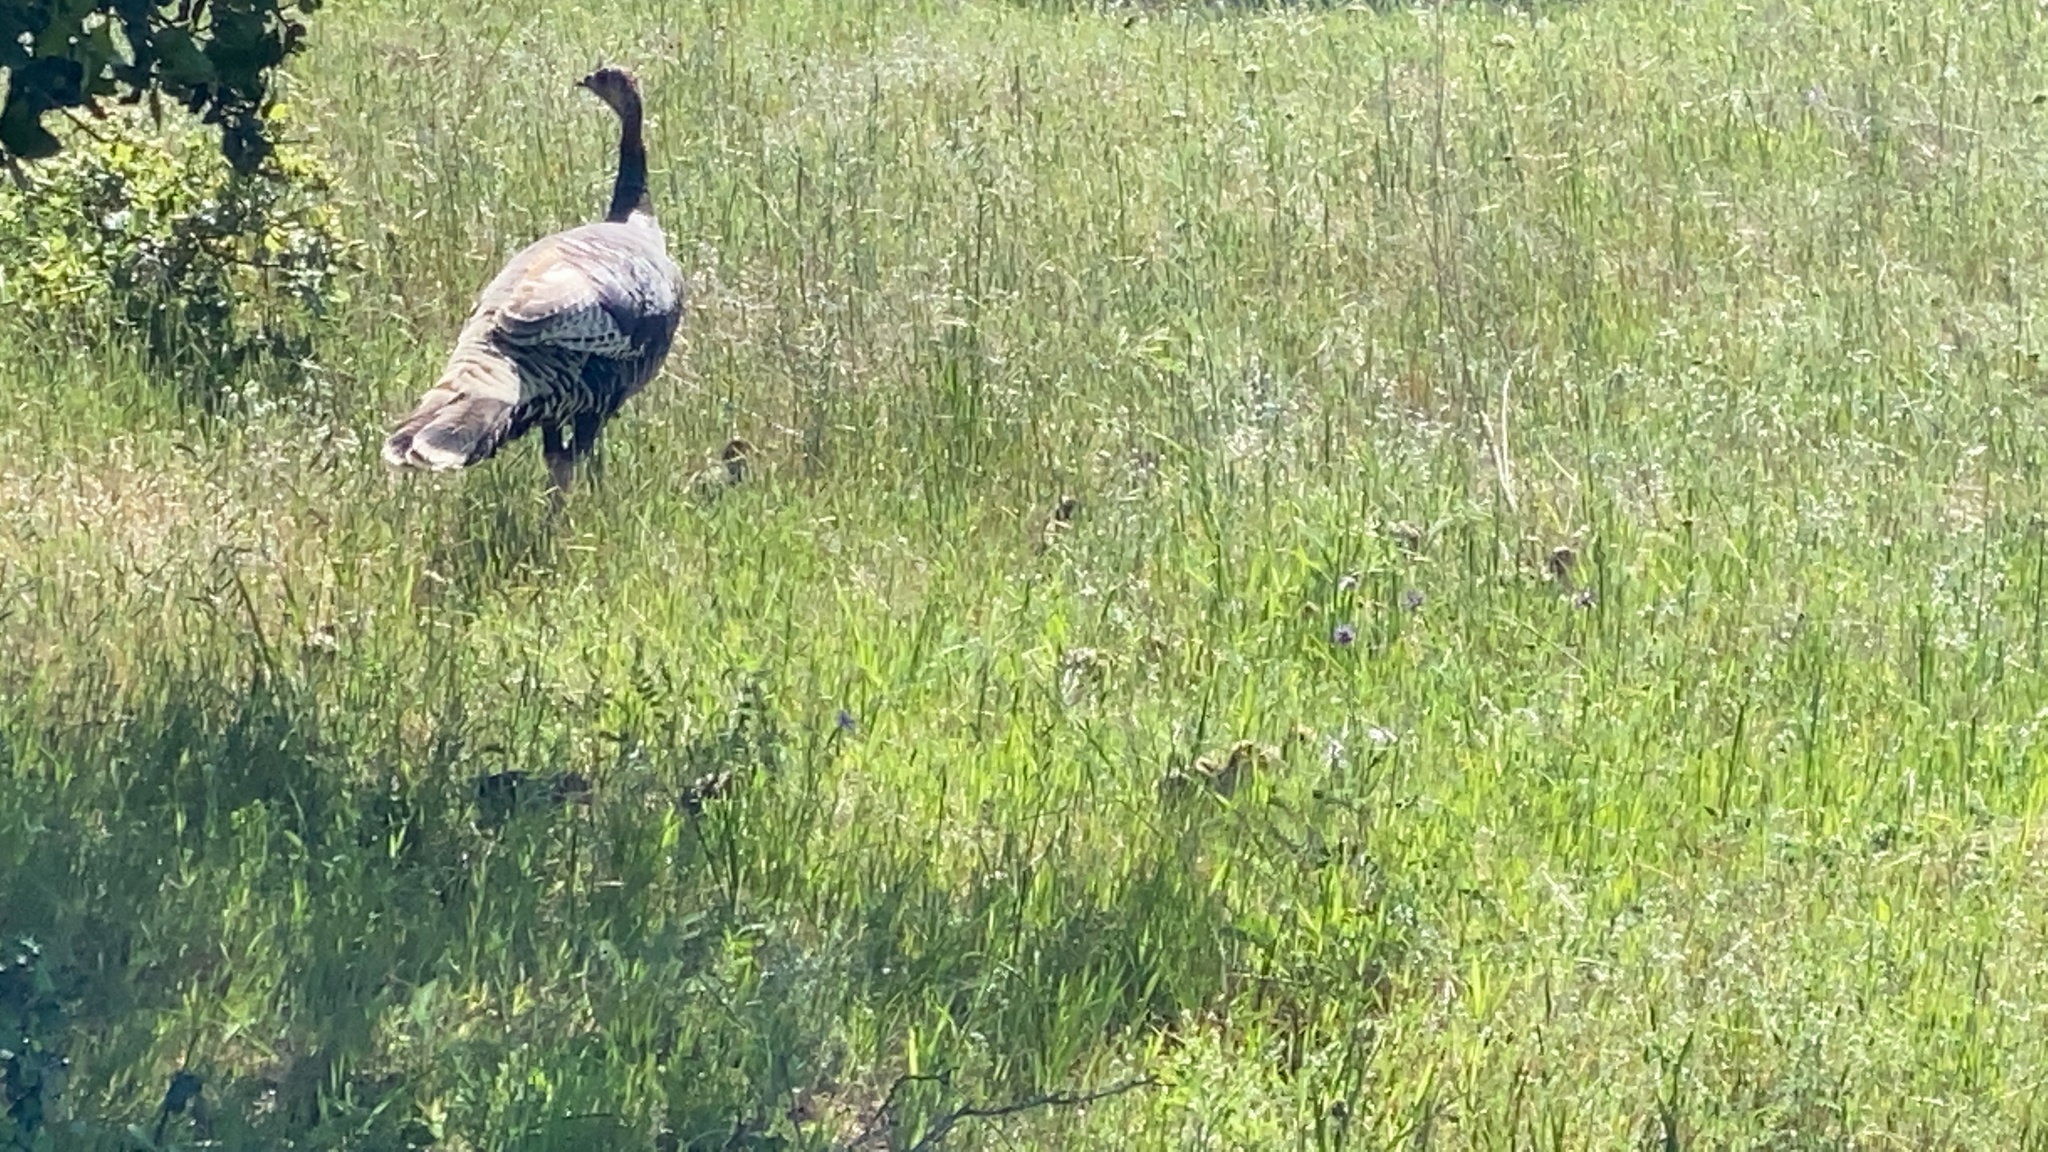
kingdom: Animalia
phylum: Chordata
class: Aves
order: Galliformes
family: Phasianidae
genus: Meleagris
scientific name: Meleagris gallopavo
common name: Wild turkey
